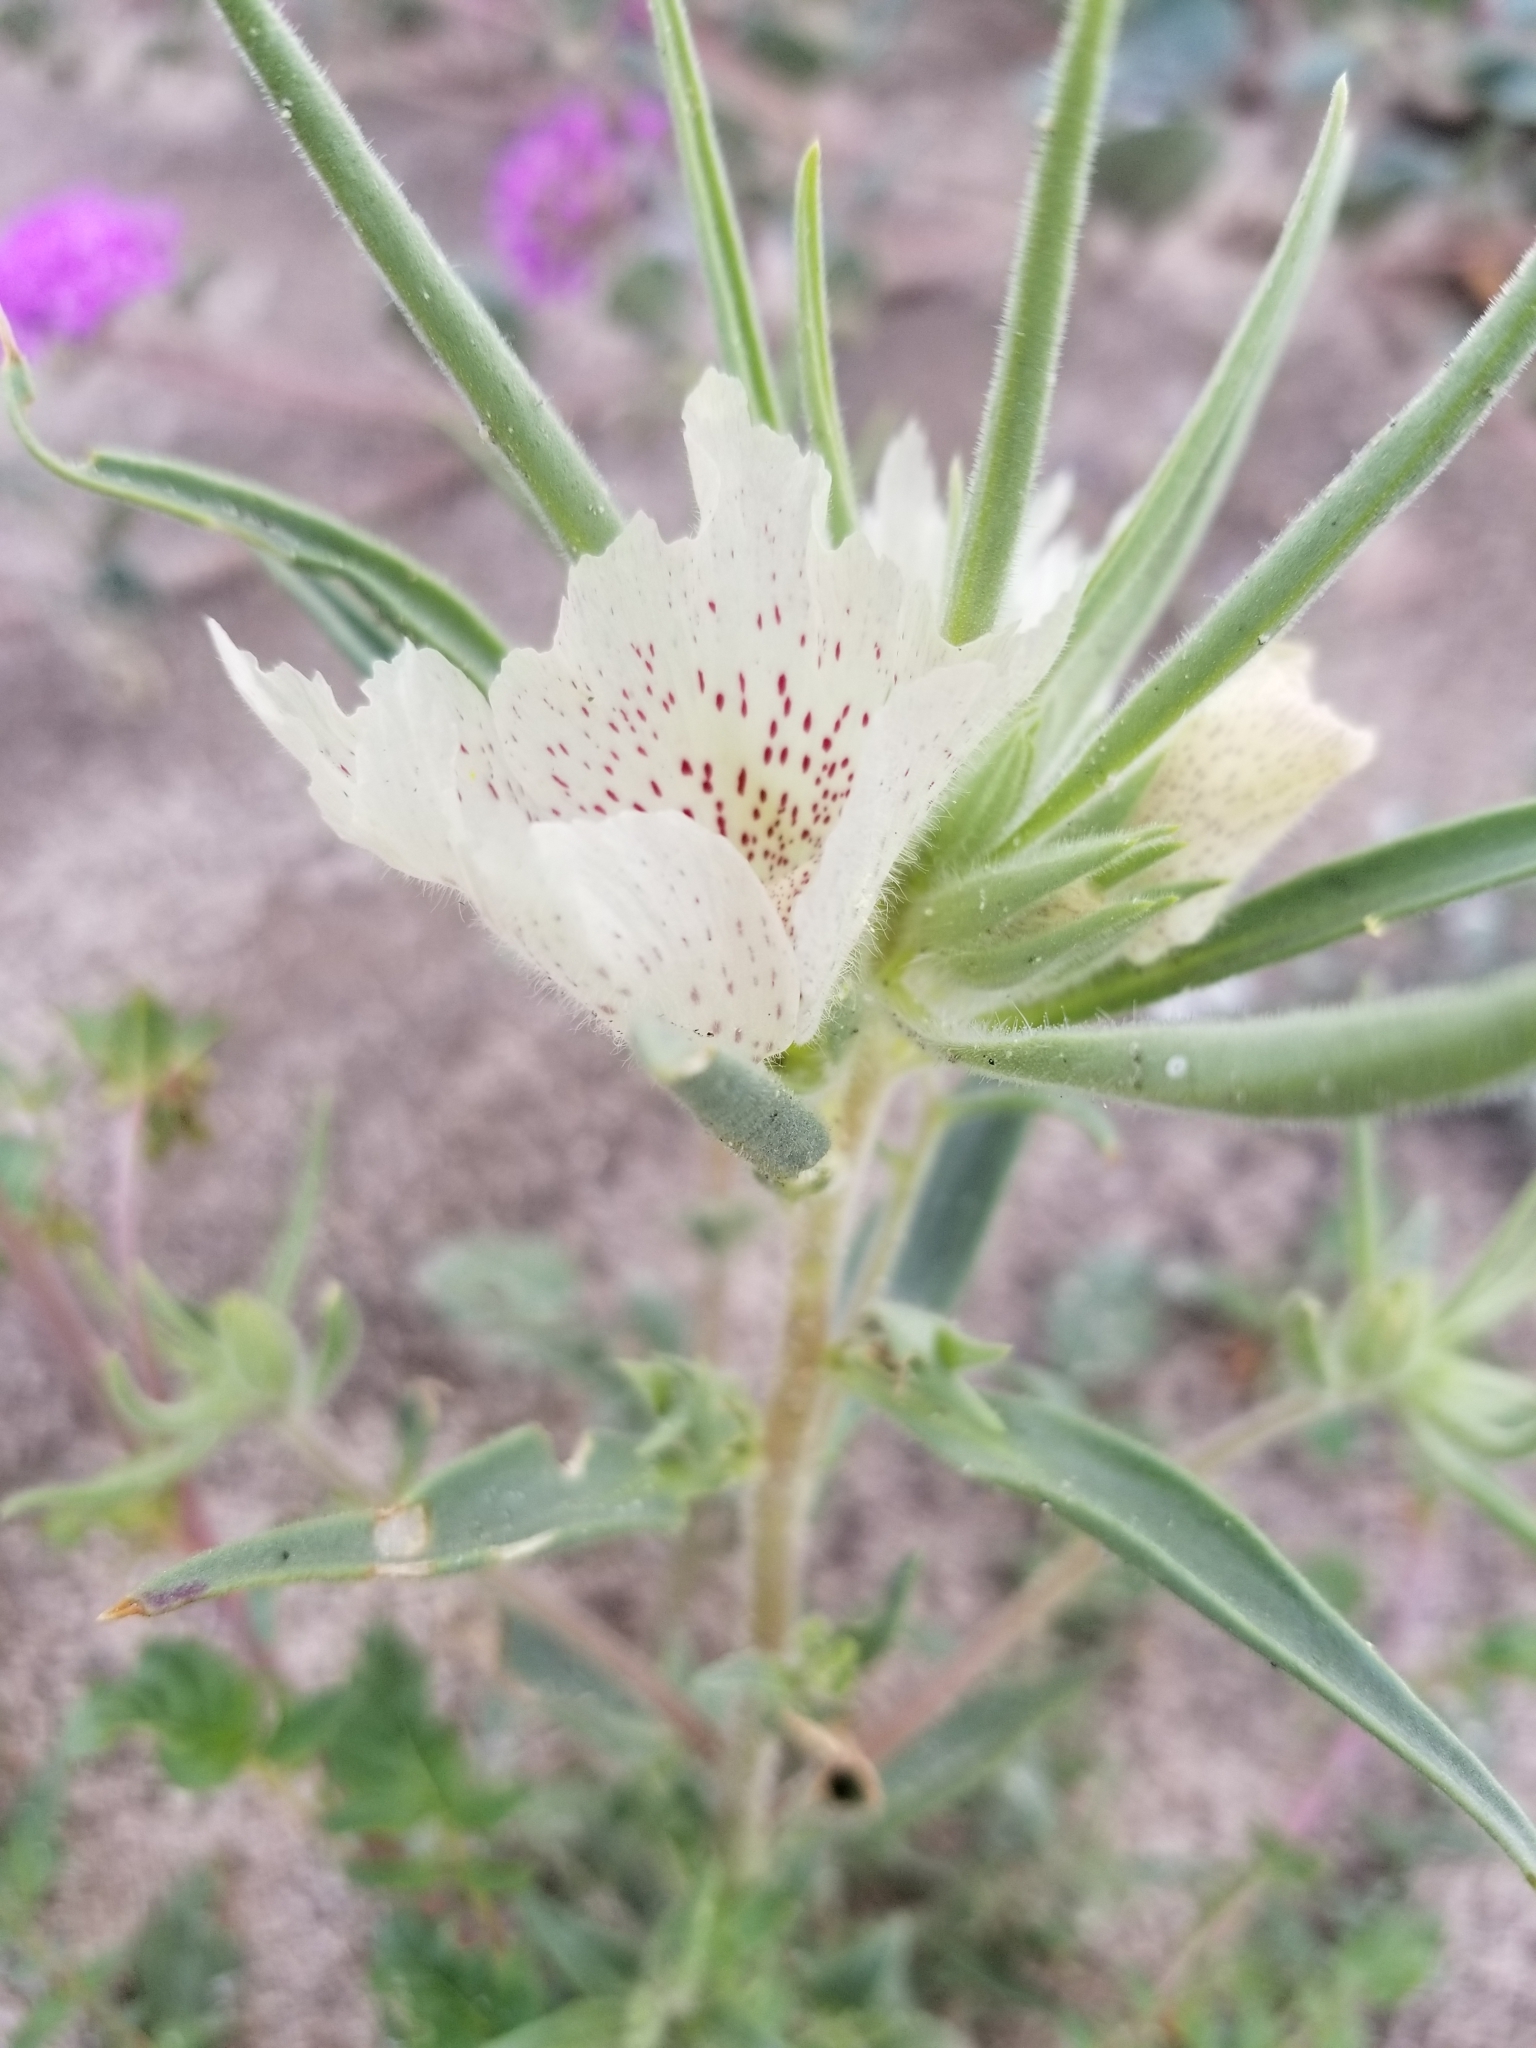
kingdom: Plantae
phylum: Tracheophyta
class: Magnoliopsida
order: Lamiales
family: Plantaginaceae
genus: Mohavea
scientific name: Mohavea confertiflora
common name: Ghost flower
